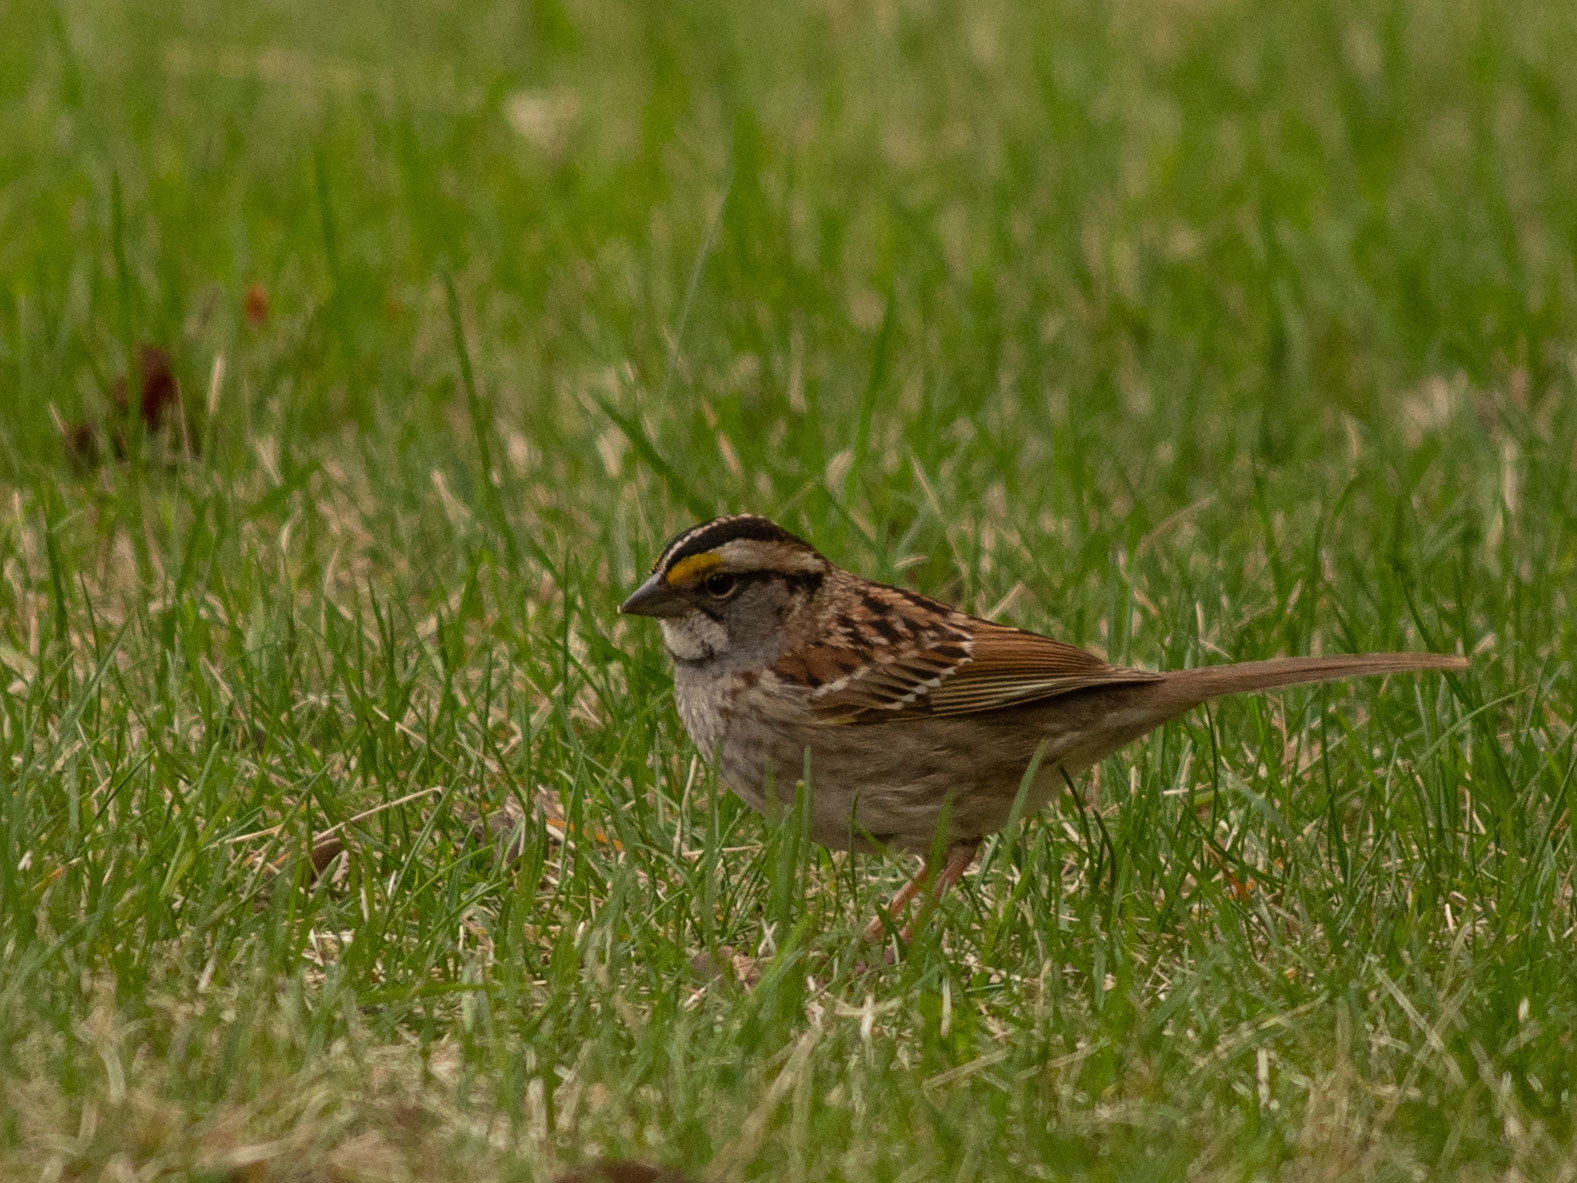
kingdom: Animalia
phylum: Chordata
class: Aves
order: Passeriformes
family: Passerellidae
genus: Zonotrichia
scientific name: Zonotrichia albicollis
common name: White-throated sparrow
